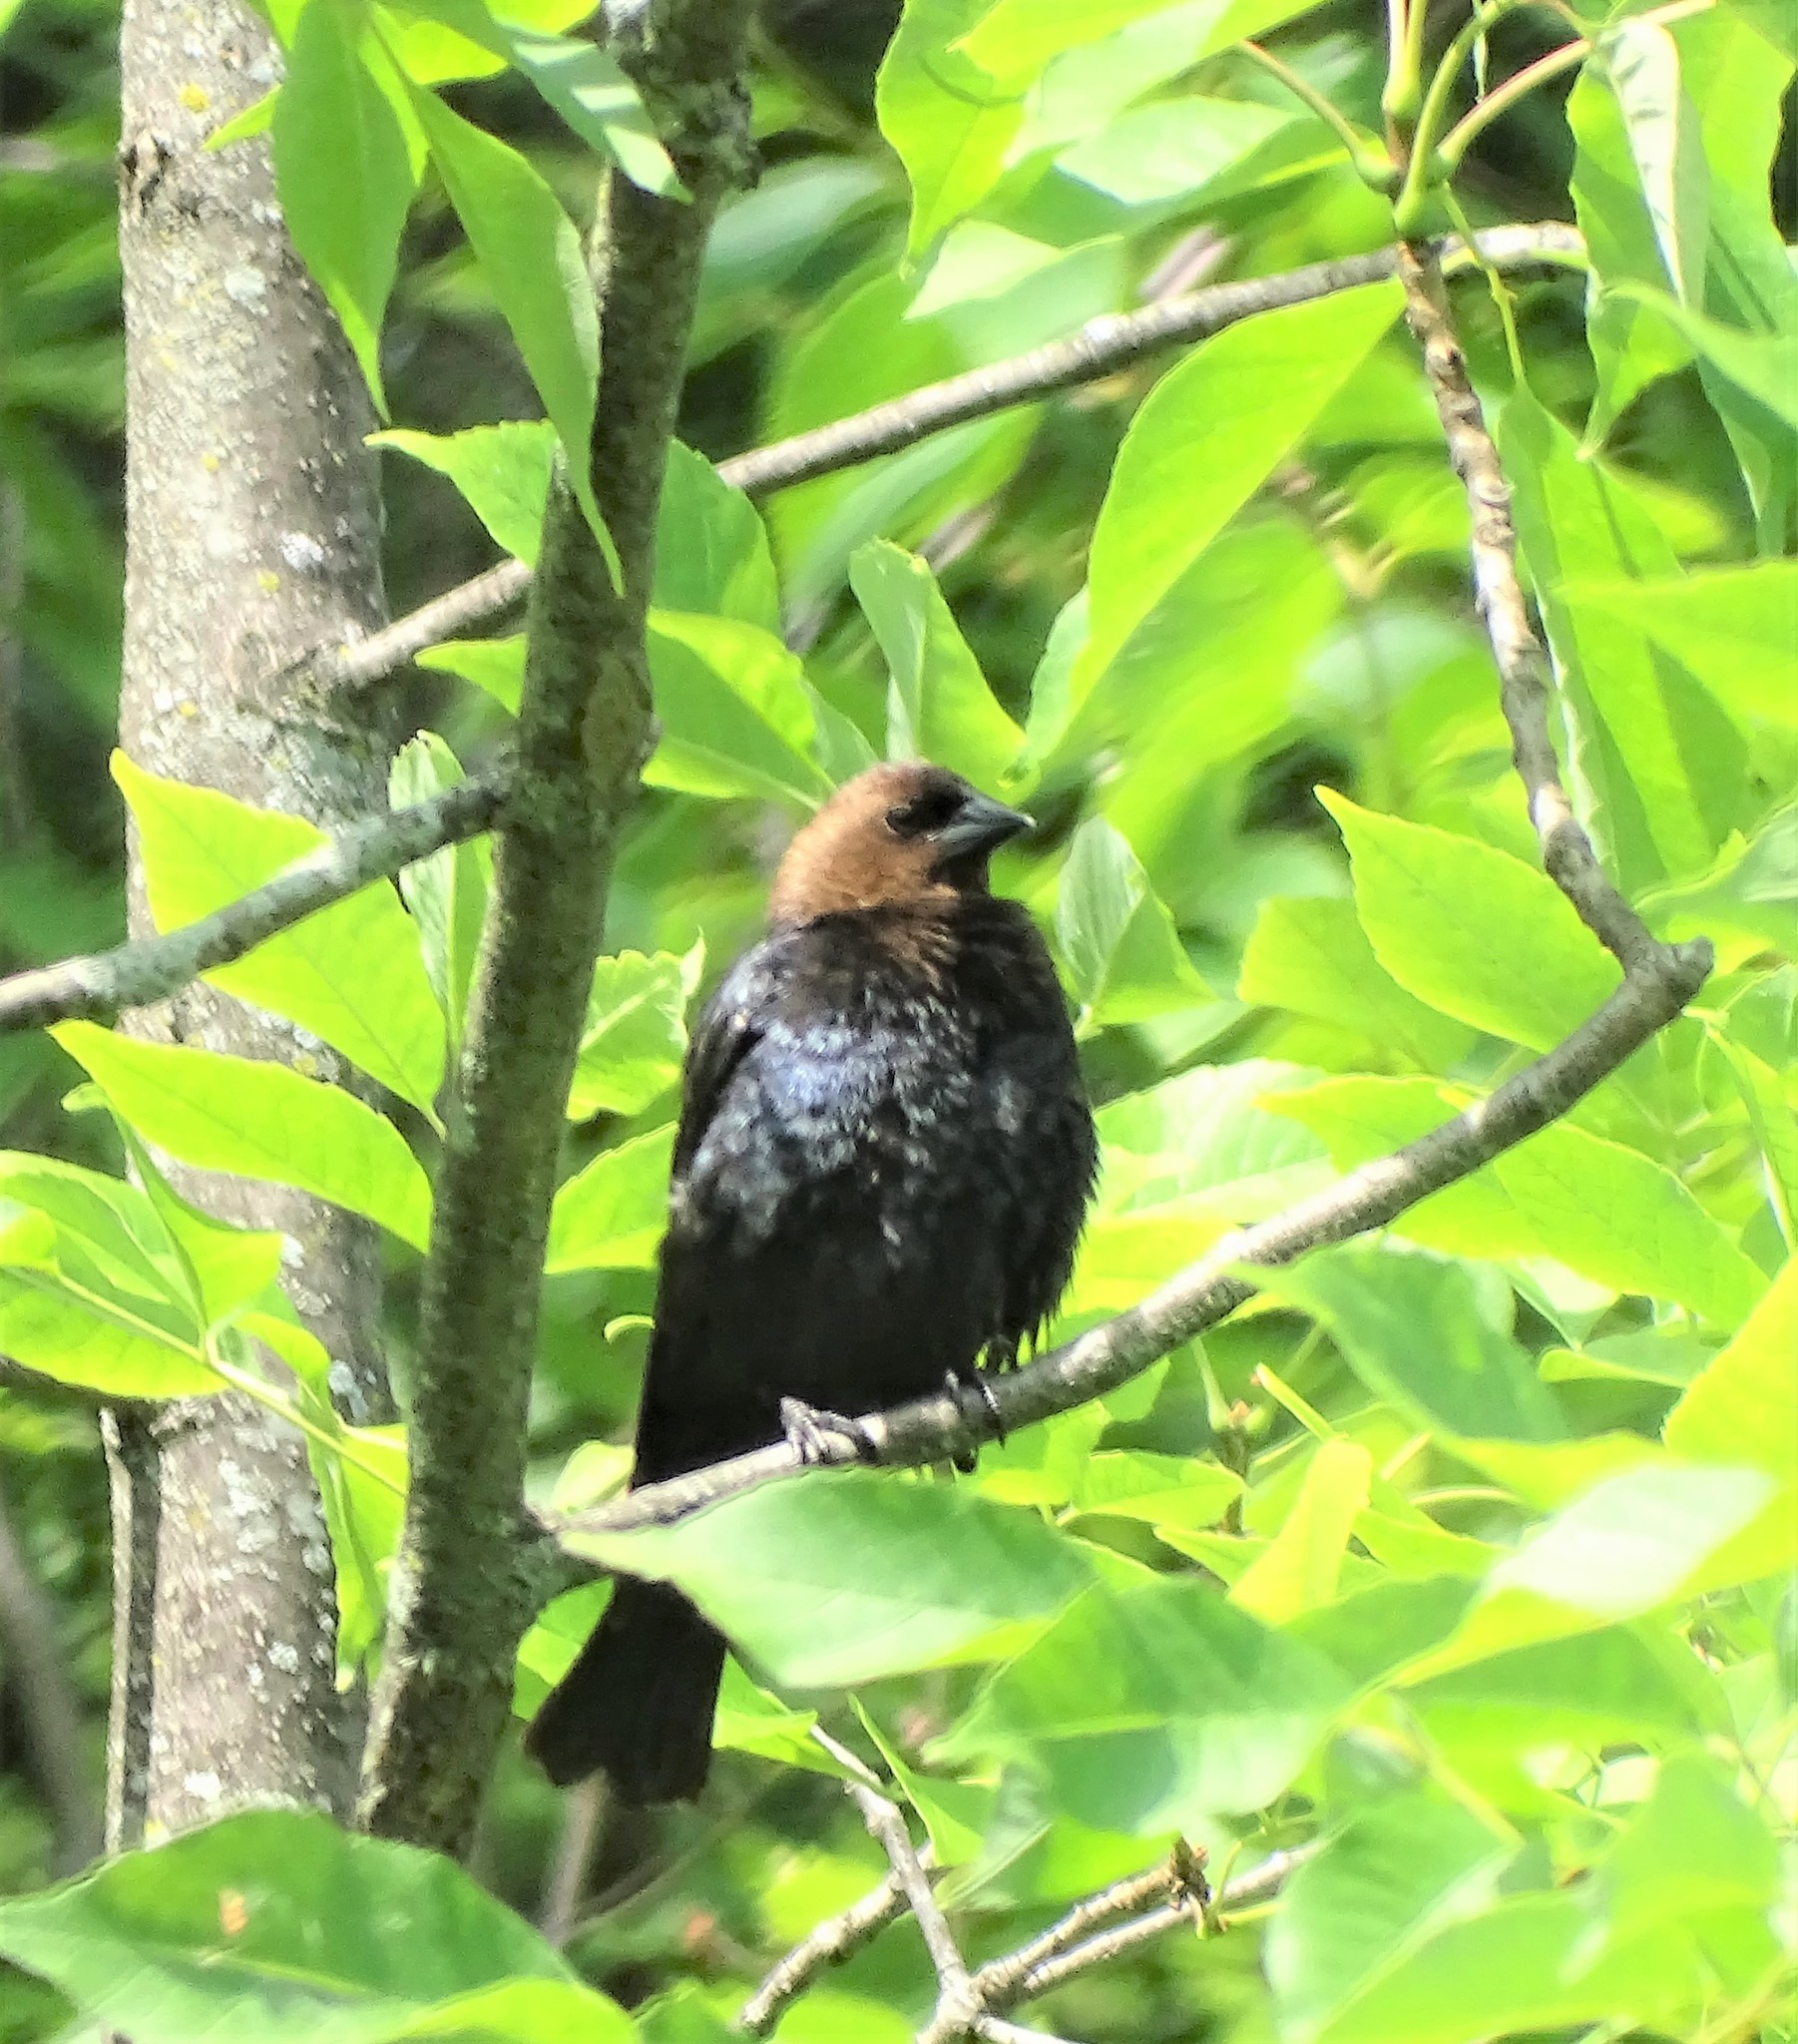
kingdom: Animalia
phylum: Chordata
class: Aves
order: Passeriformes
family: Icteridae
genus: Molothrus
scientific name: Molothrus ater
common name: Brown-headed cowbird
